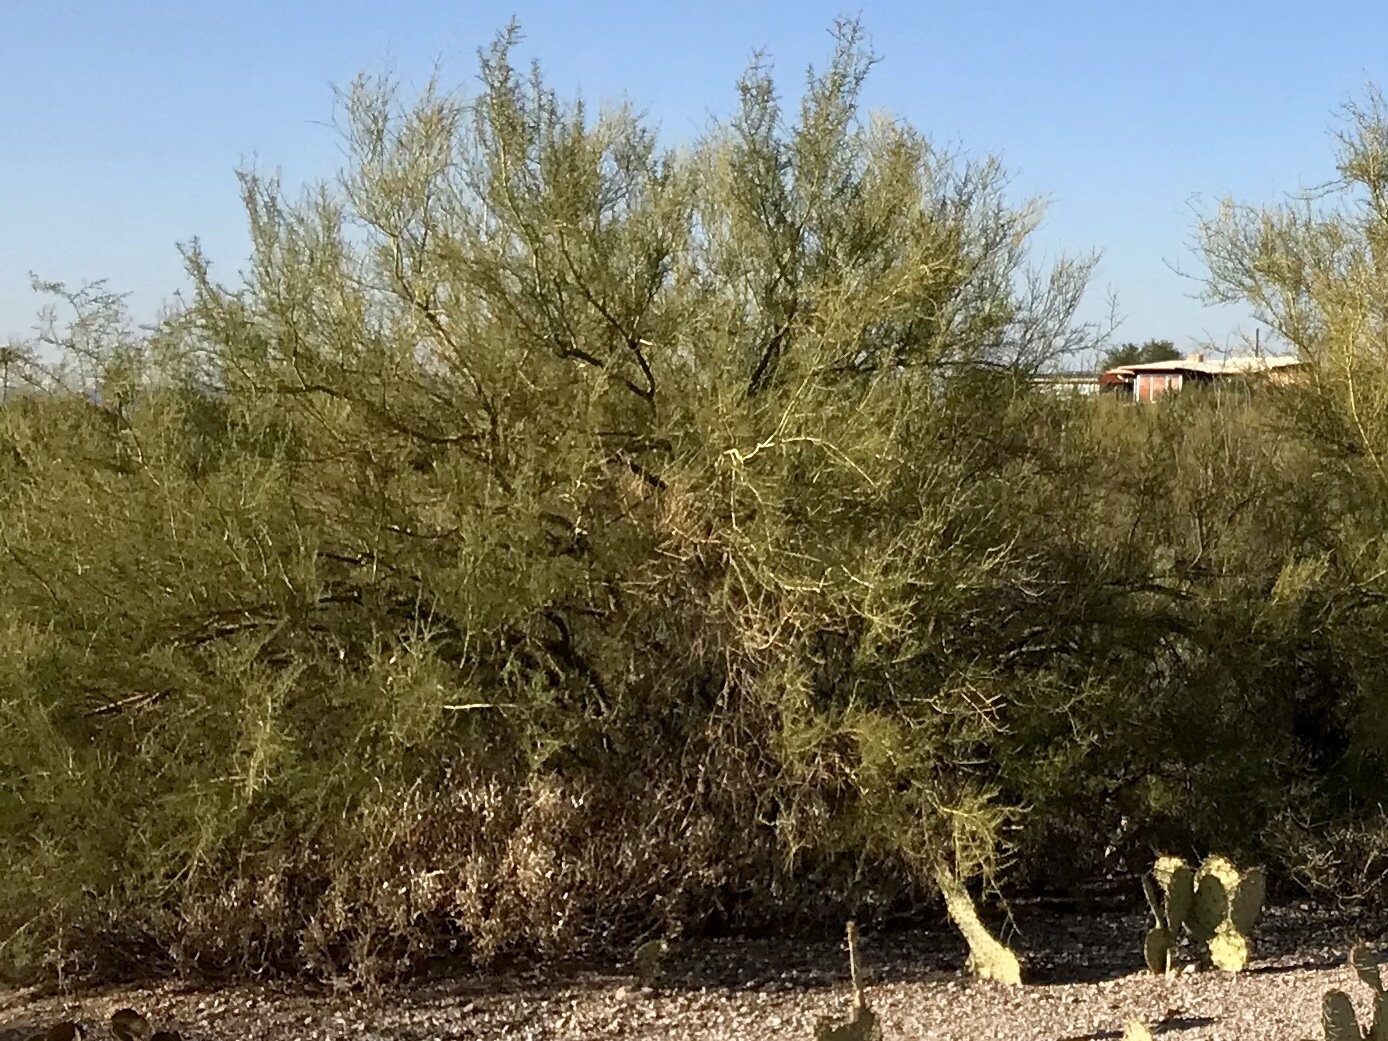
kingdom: Plantae
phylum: Tracheophyta
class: Magnoliopsida
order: Fabales
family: Fabaceae
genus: Parkinsonia
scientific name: Parkinsonia microphylla
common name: Yellow paloverde
